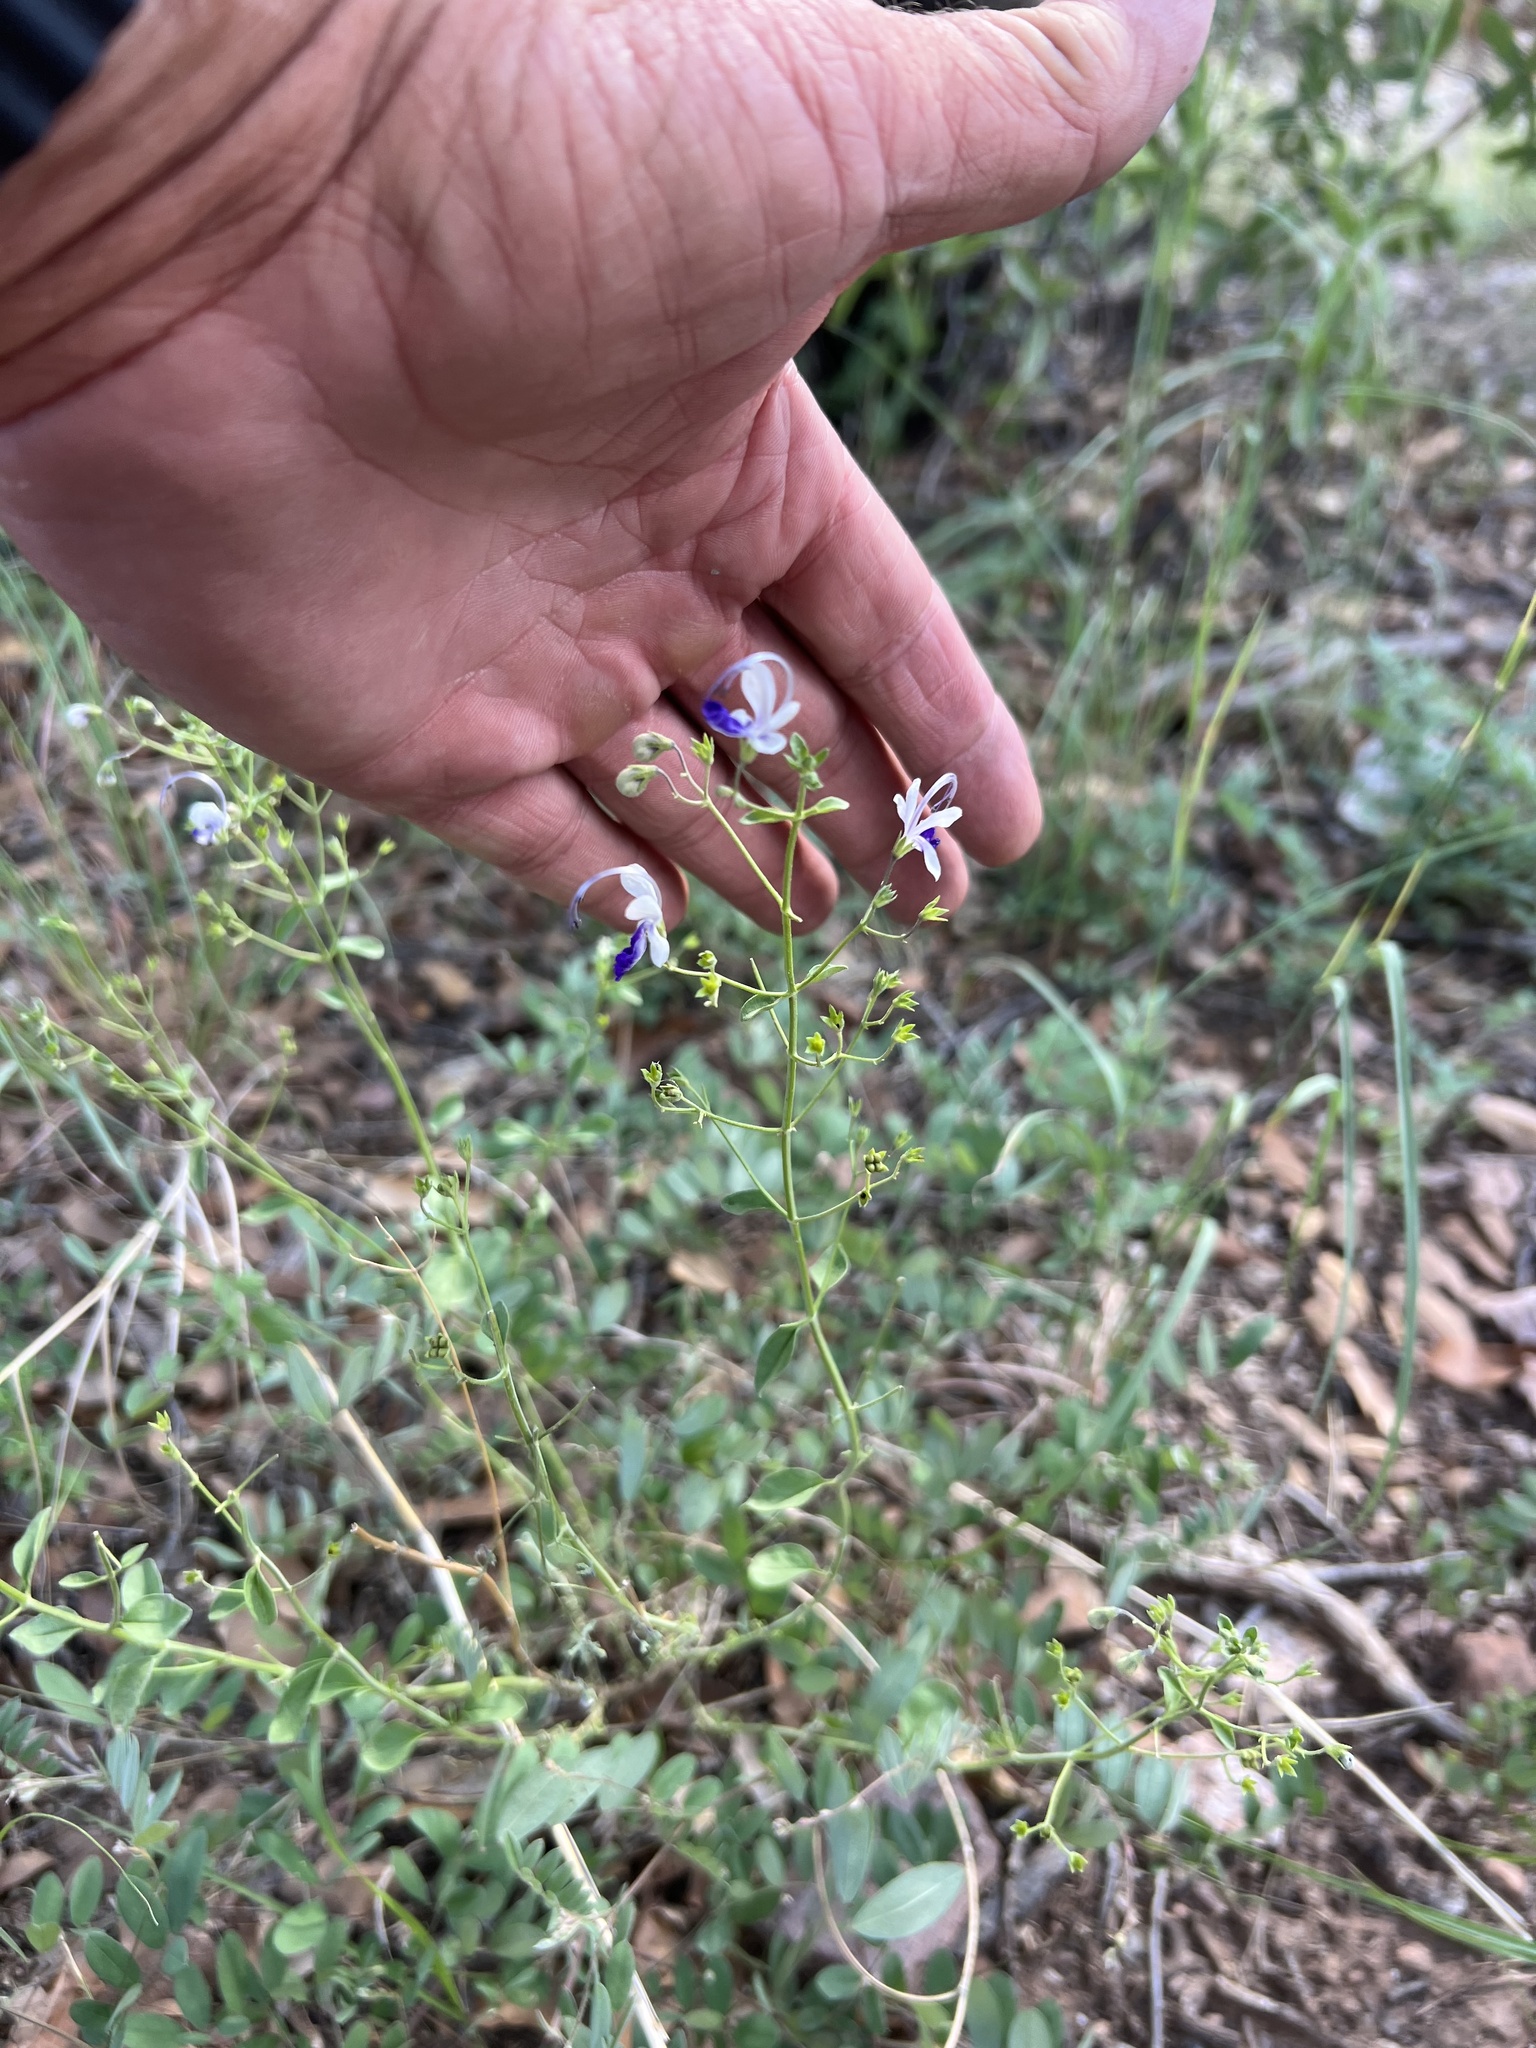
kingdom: Plantae
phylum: Tracheophyta
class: Magnoliopsida
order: Lamiales
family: Lamiaceae
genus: Trichostema
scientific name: Trichostema arizonicum
